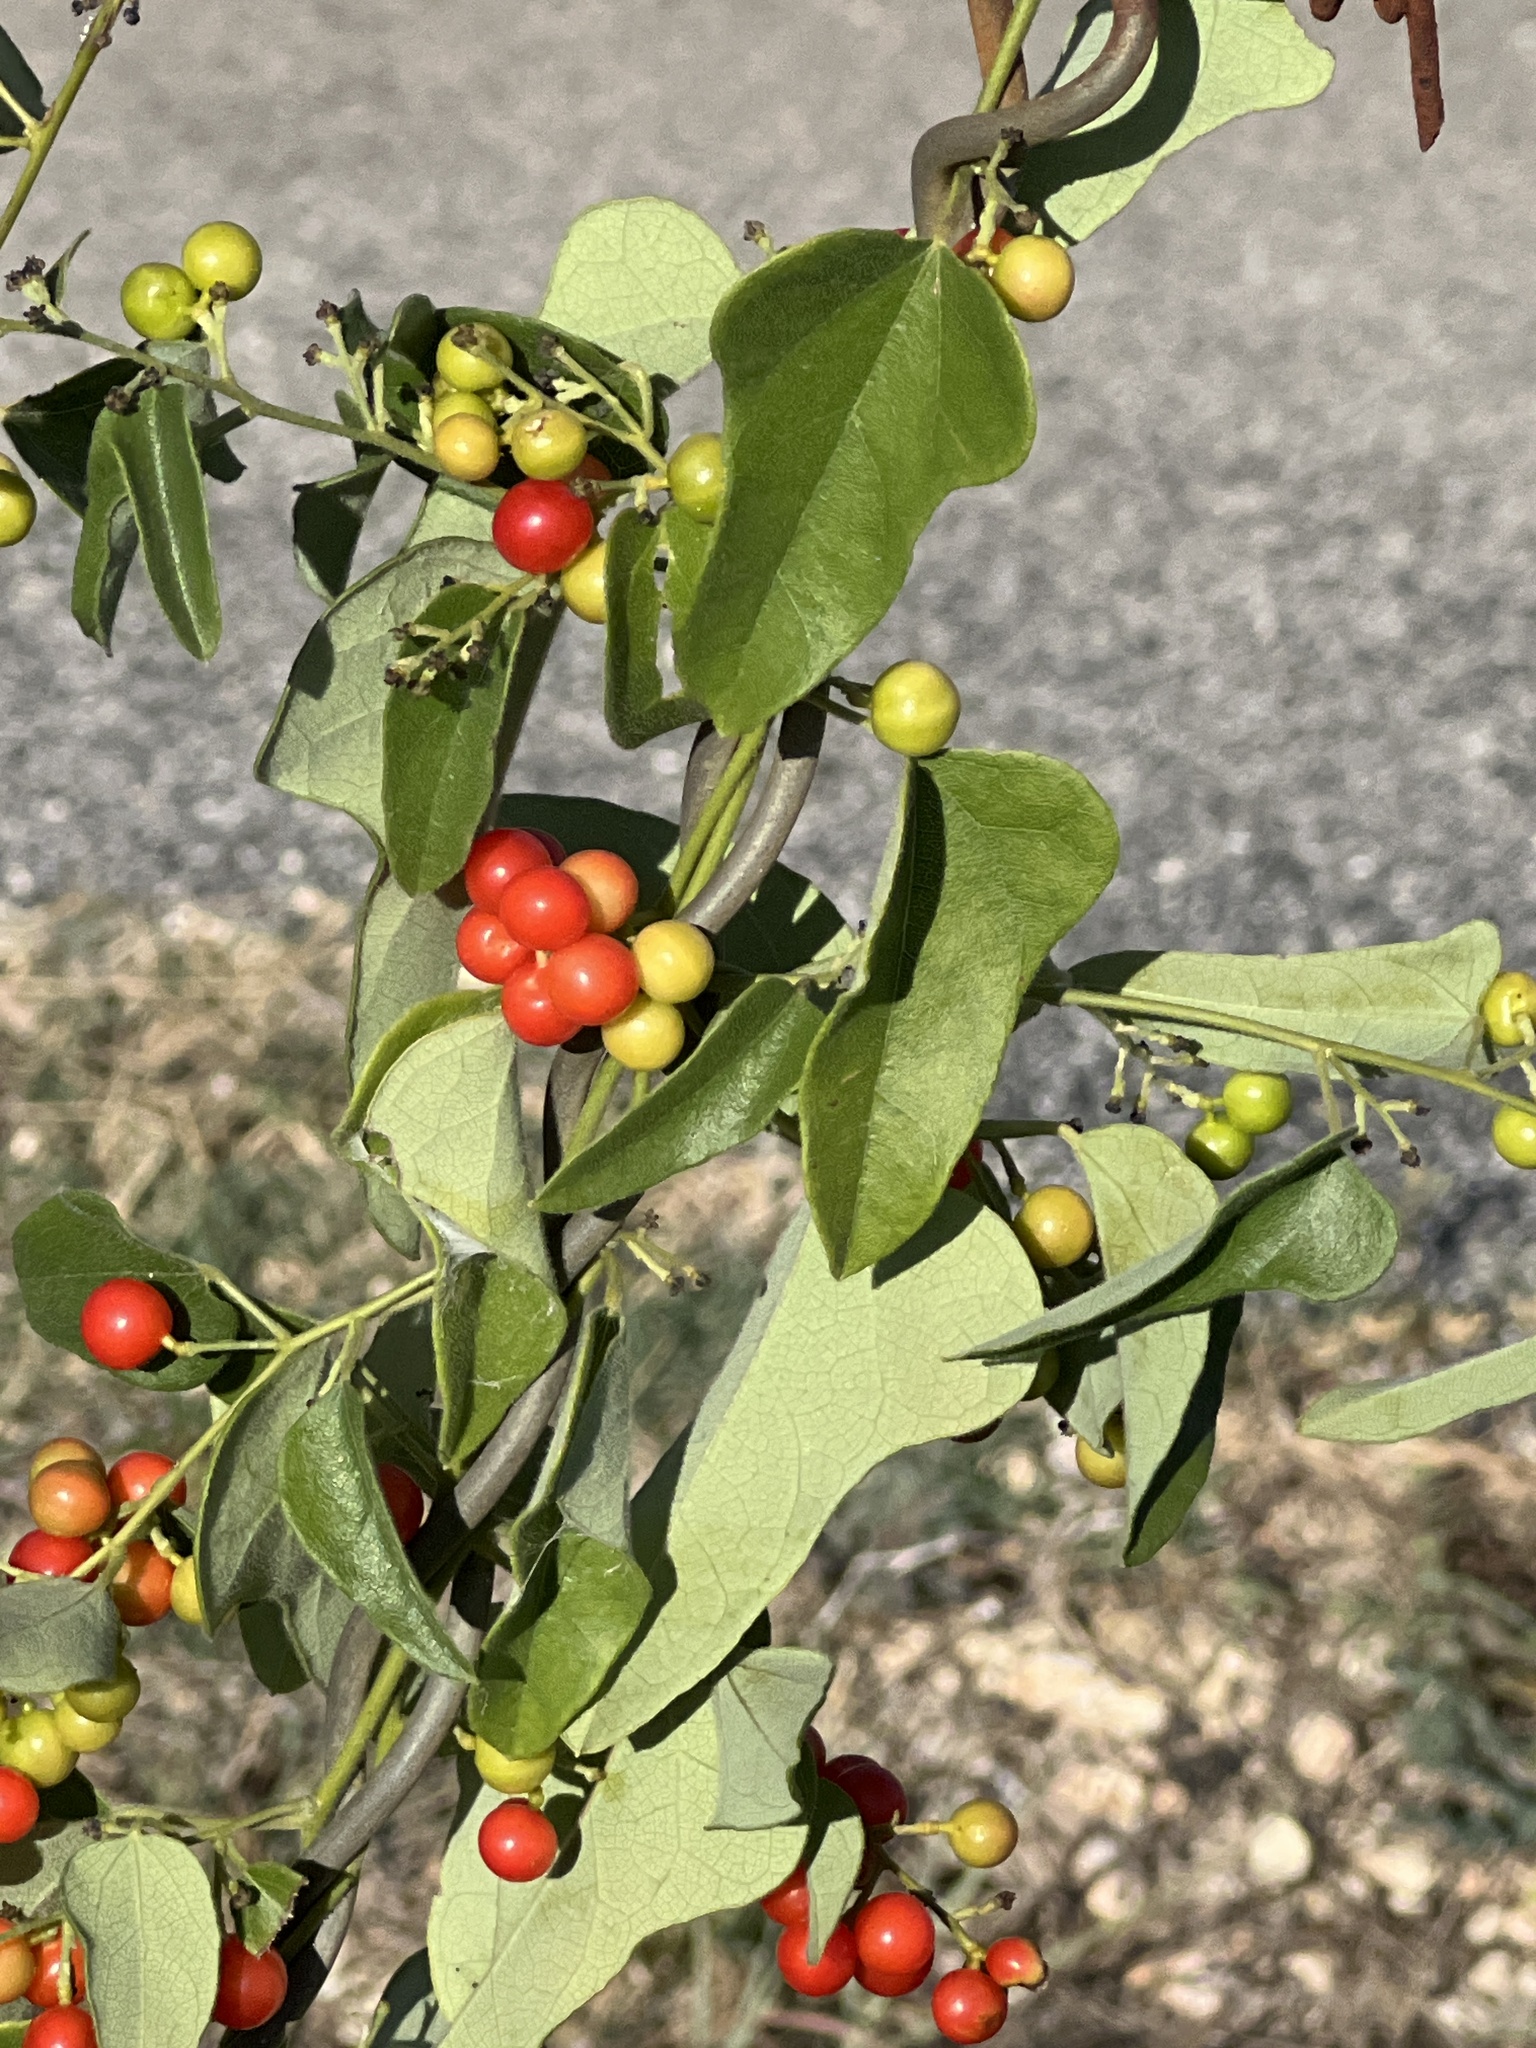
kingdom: Plantae
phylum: Tracheophyta
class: Magnoliopsida
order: Ranunculales
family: Menispermaceae
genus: Cocculus
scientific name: Cocculus carolinus
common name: Carolina moonseed
